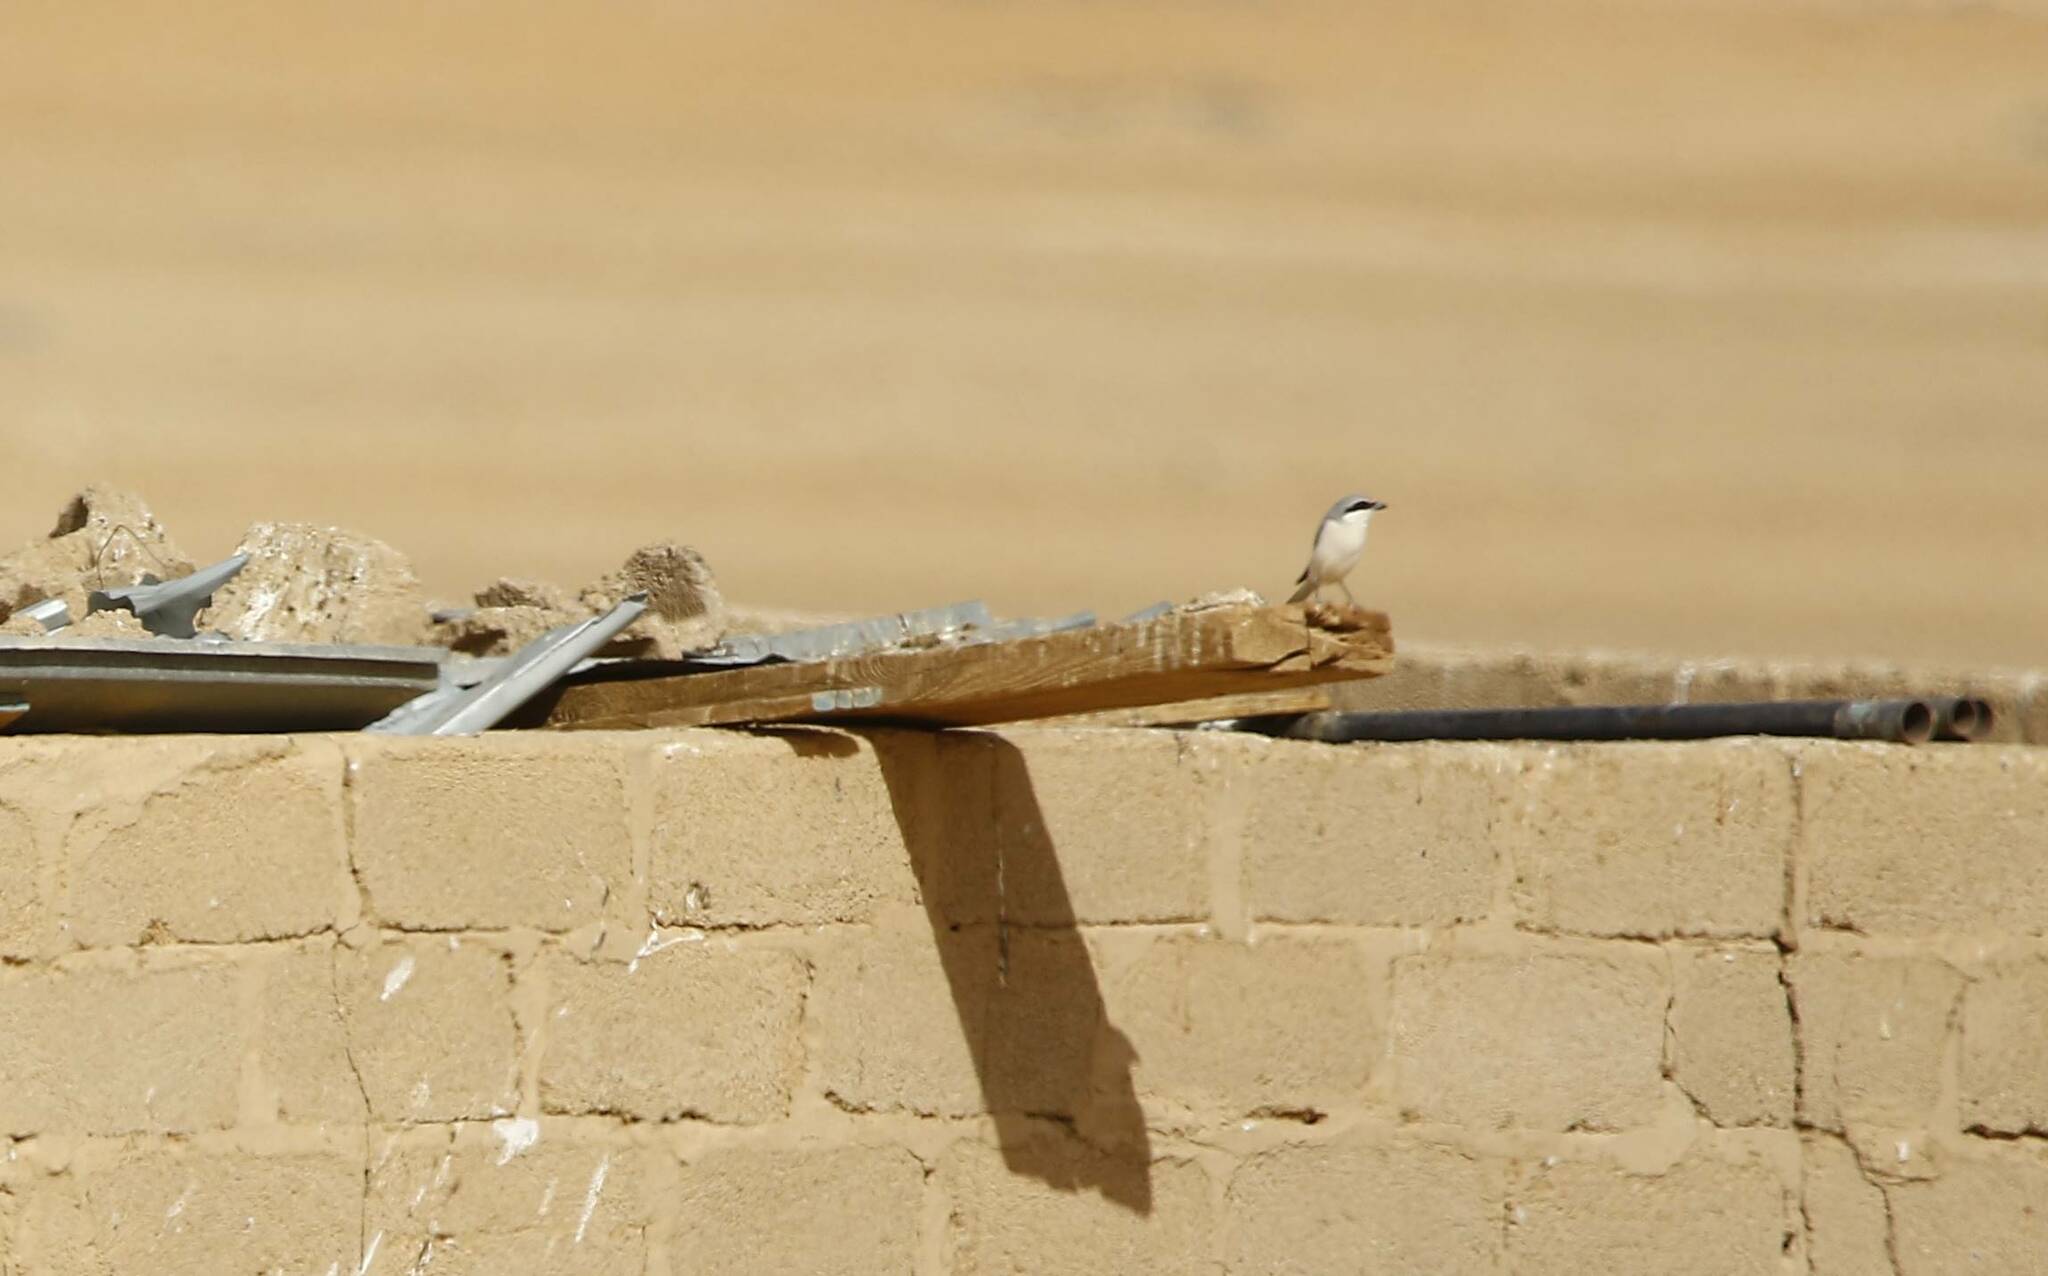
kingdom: Animalia
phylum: Chordata
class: Aves
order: Passeriformes
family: Laniidae
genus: Lanius
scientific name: Lanius excubitor
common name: Great grey shrike
